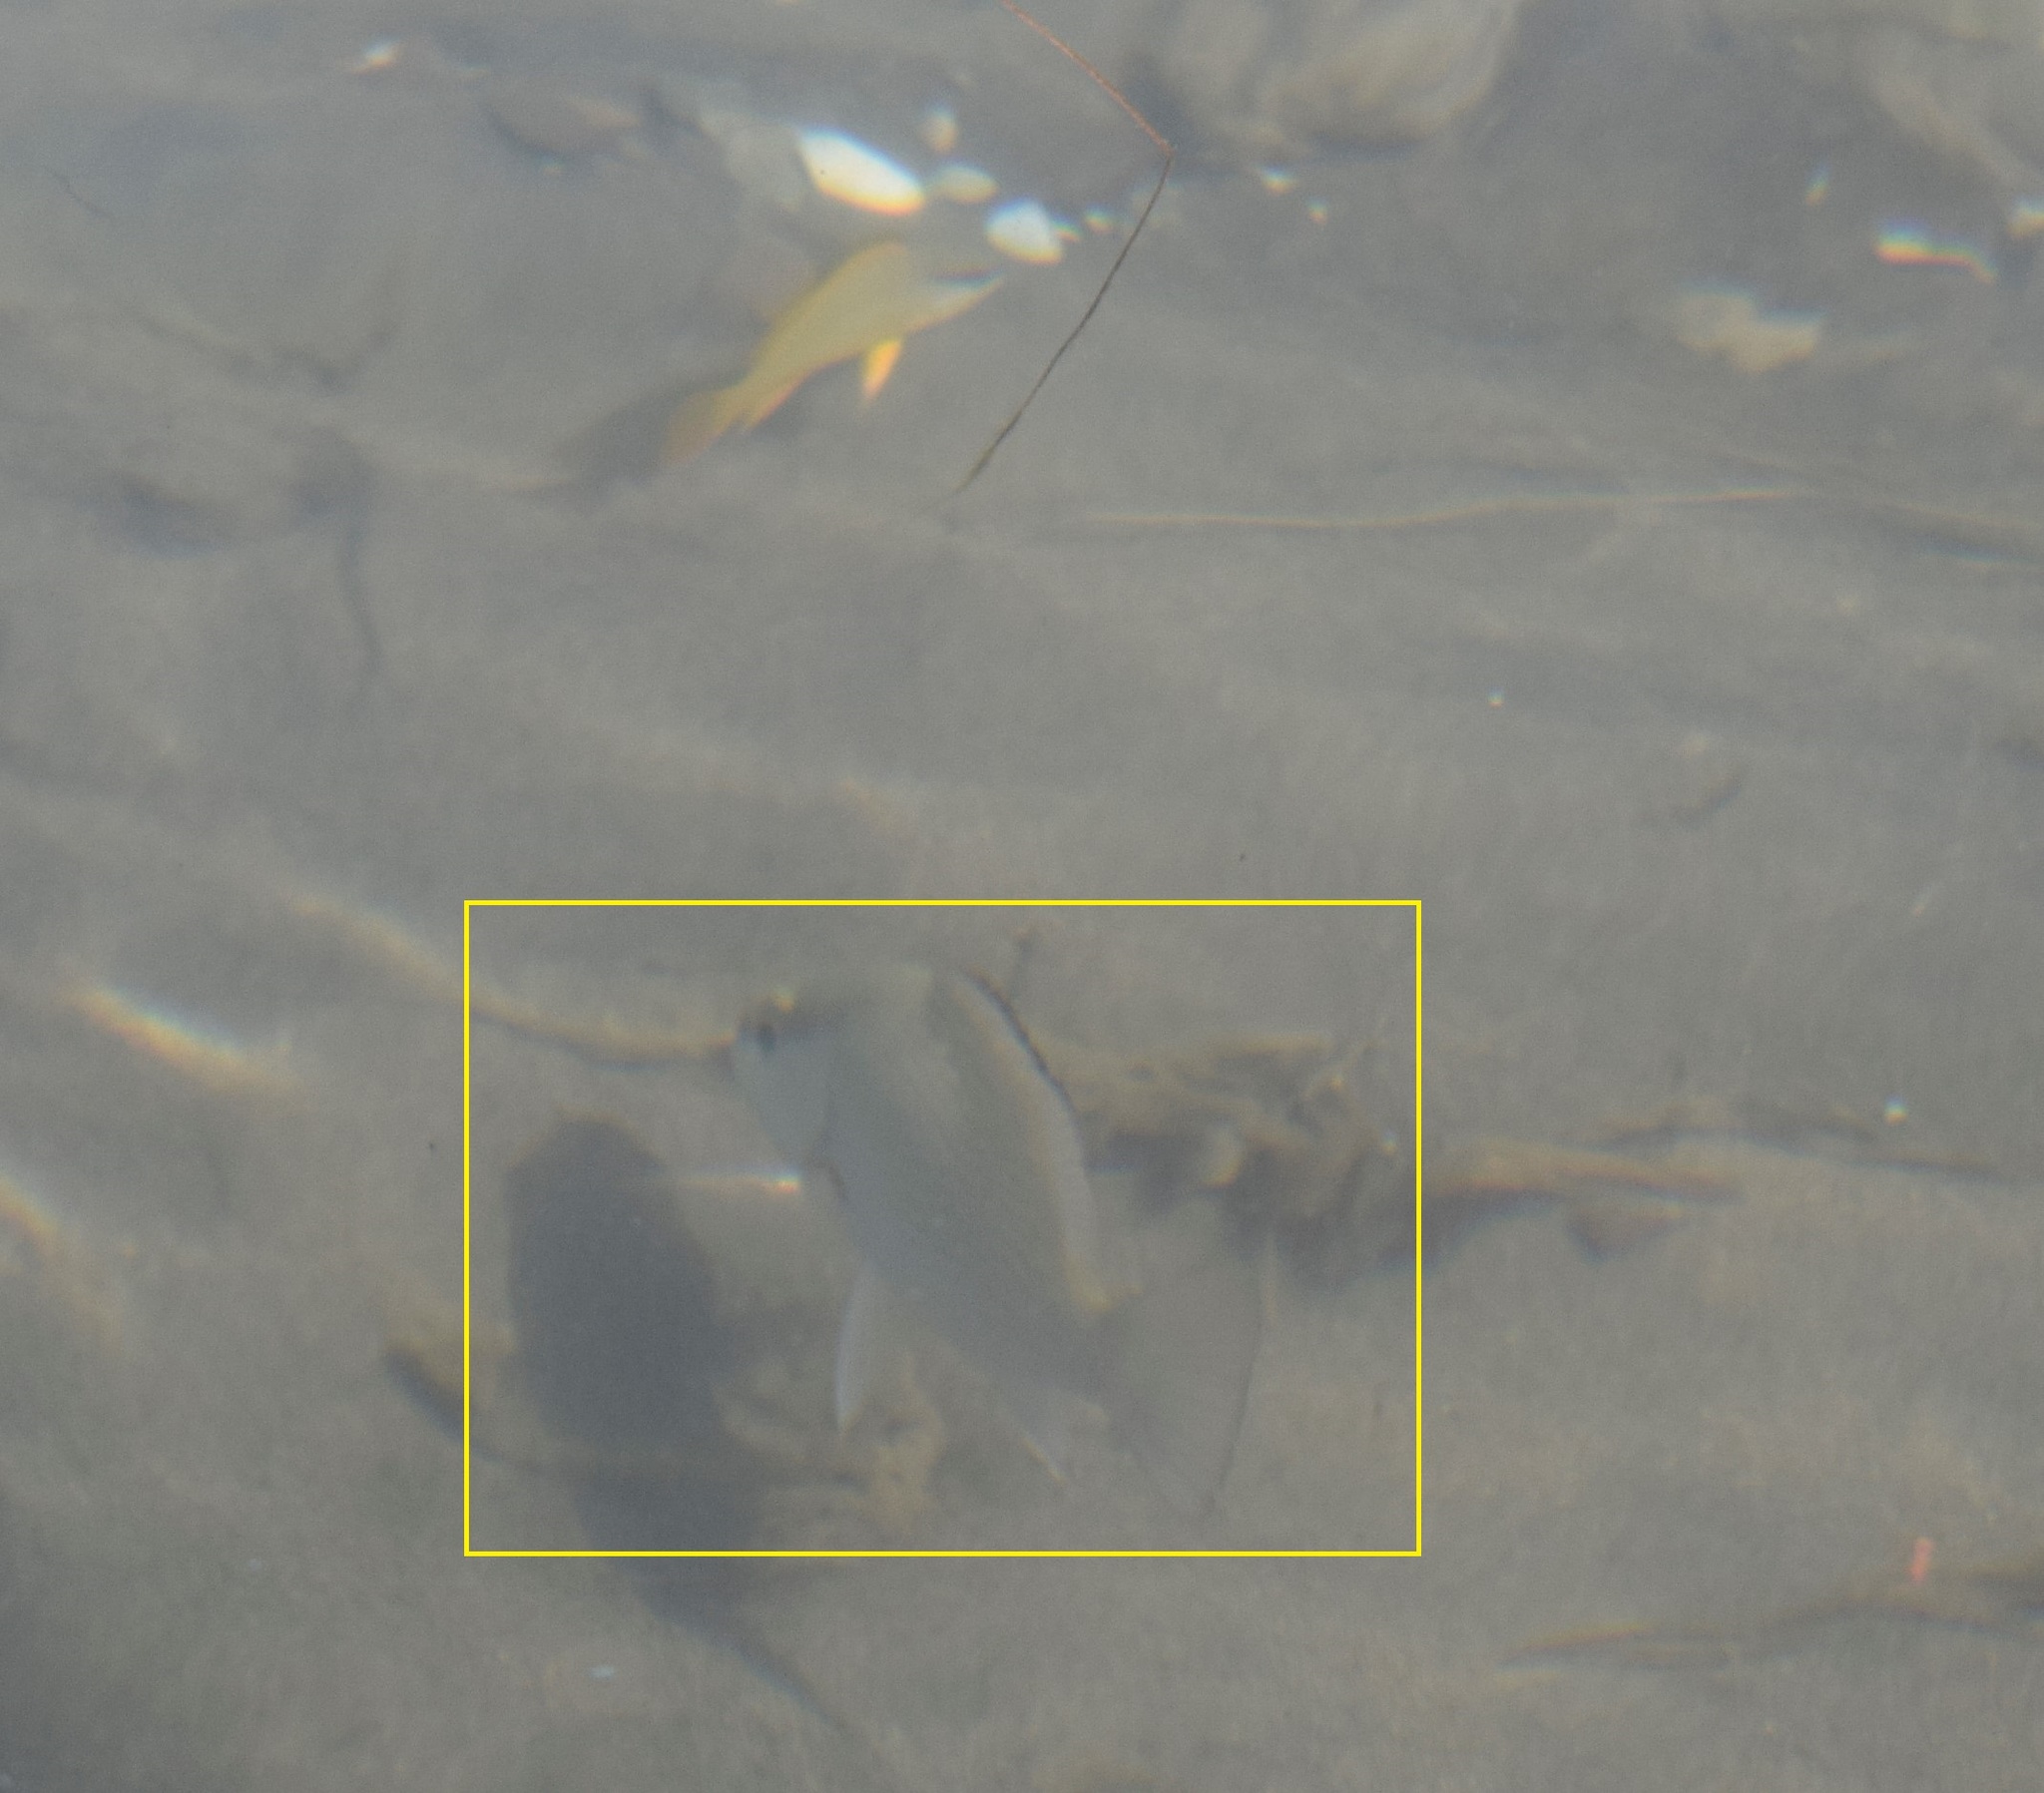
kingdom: Animalia
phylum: Chordata
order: Perciformes
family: Lutjanidae
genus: Lutjanus
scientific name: Lutjanus griseus
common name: Gray snapper
